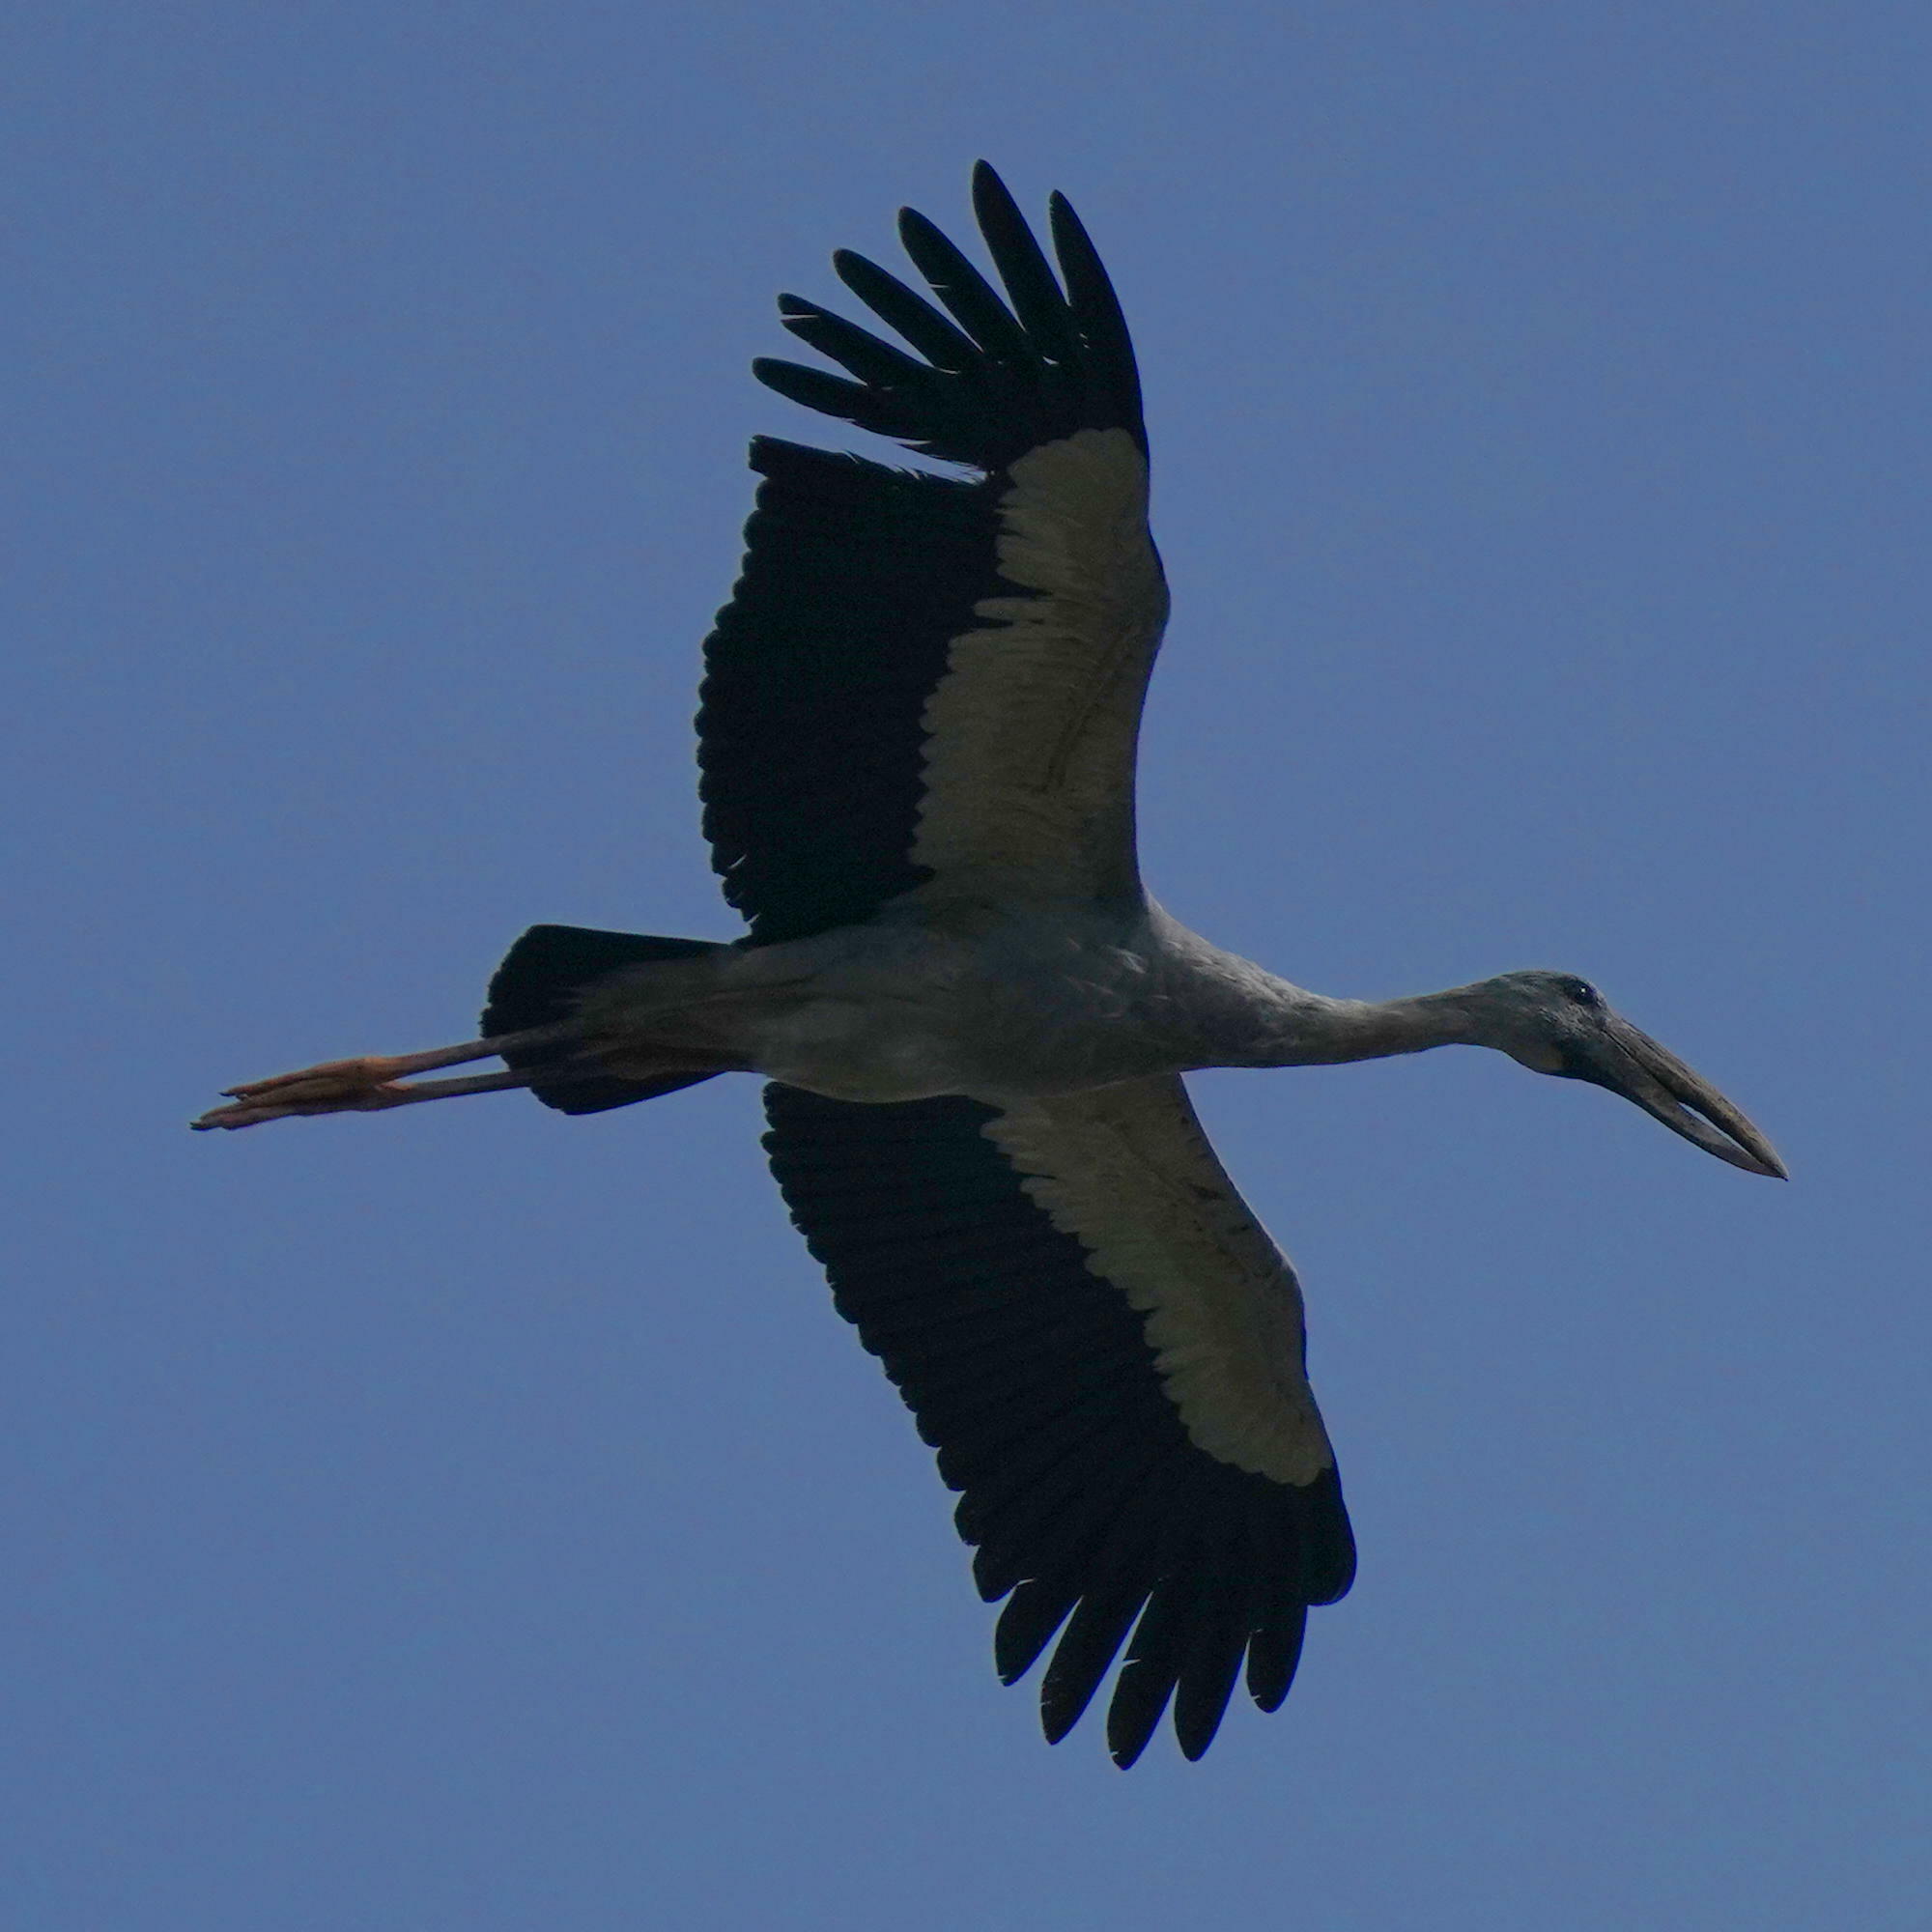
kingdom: Animalia
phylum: Chordata
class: Aves
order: Ciconiiformes
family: Ciconiidae
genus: Anastomus
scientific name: Anastomus oscitans
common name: Asian openbill
